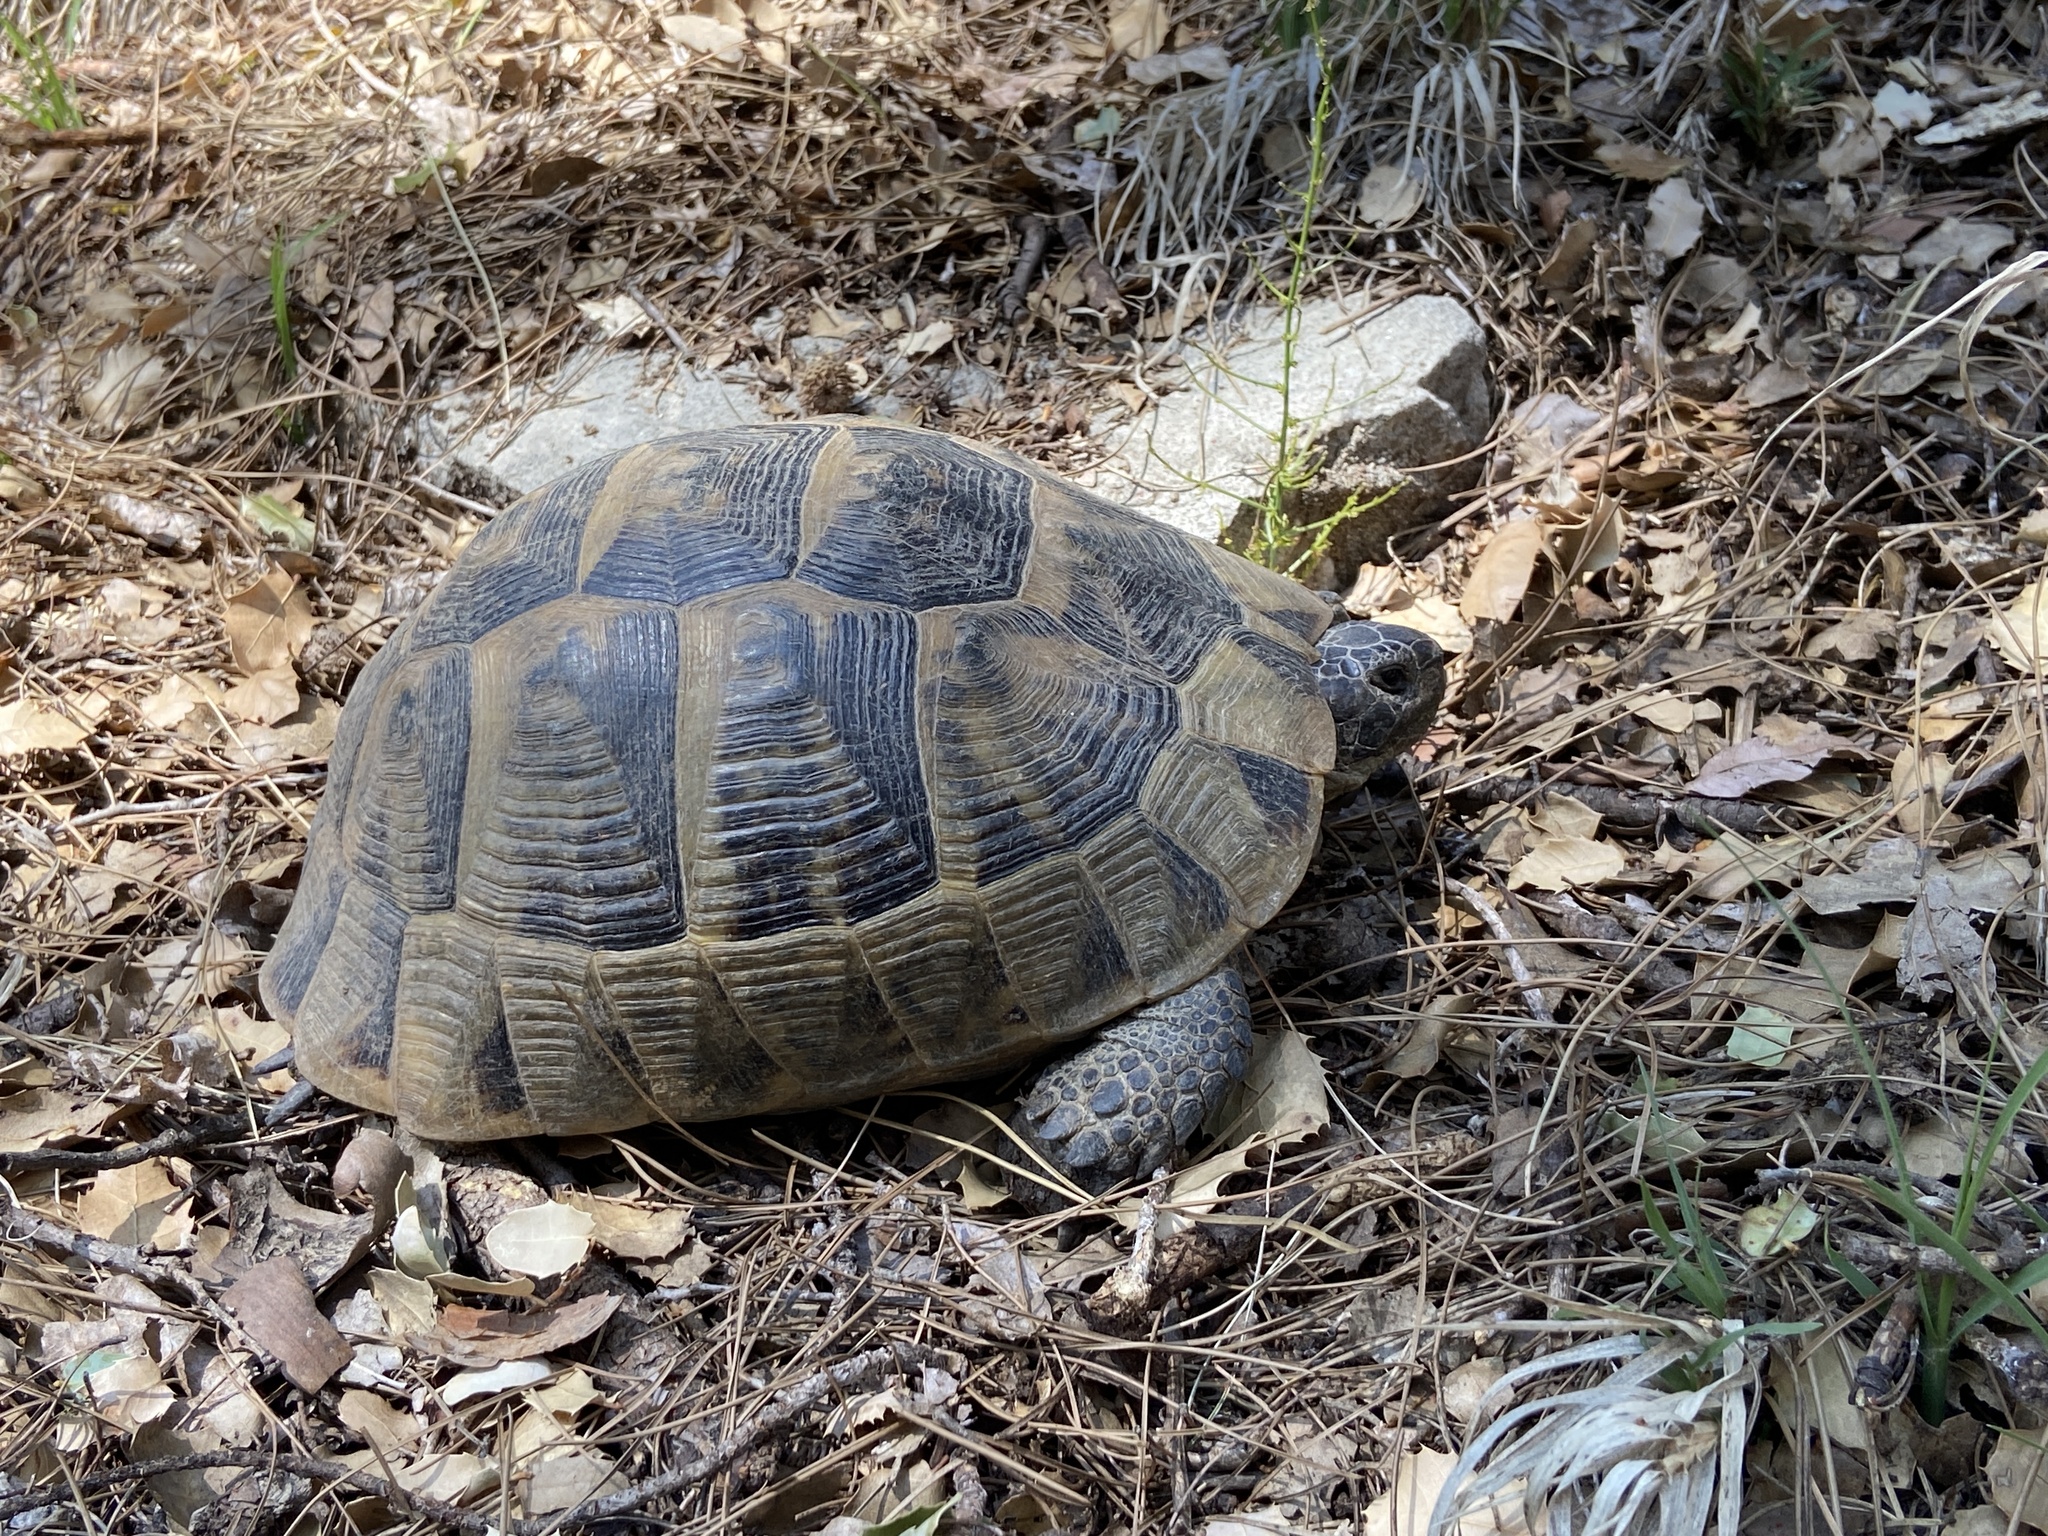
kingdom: Animalia
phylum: Chordata
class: Testudines
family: Testudinidae
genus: Testudo
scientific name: Testudo graeca
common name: Common tortoise
